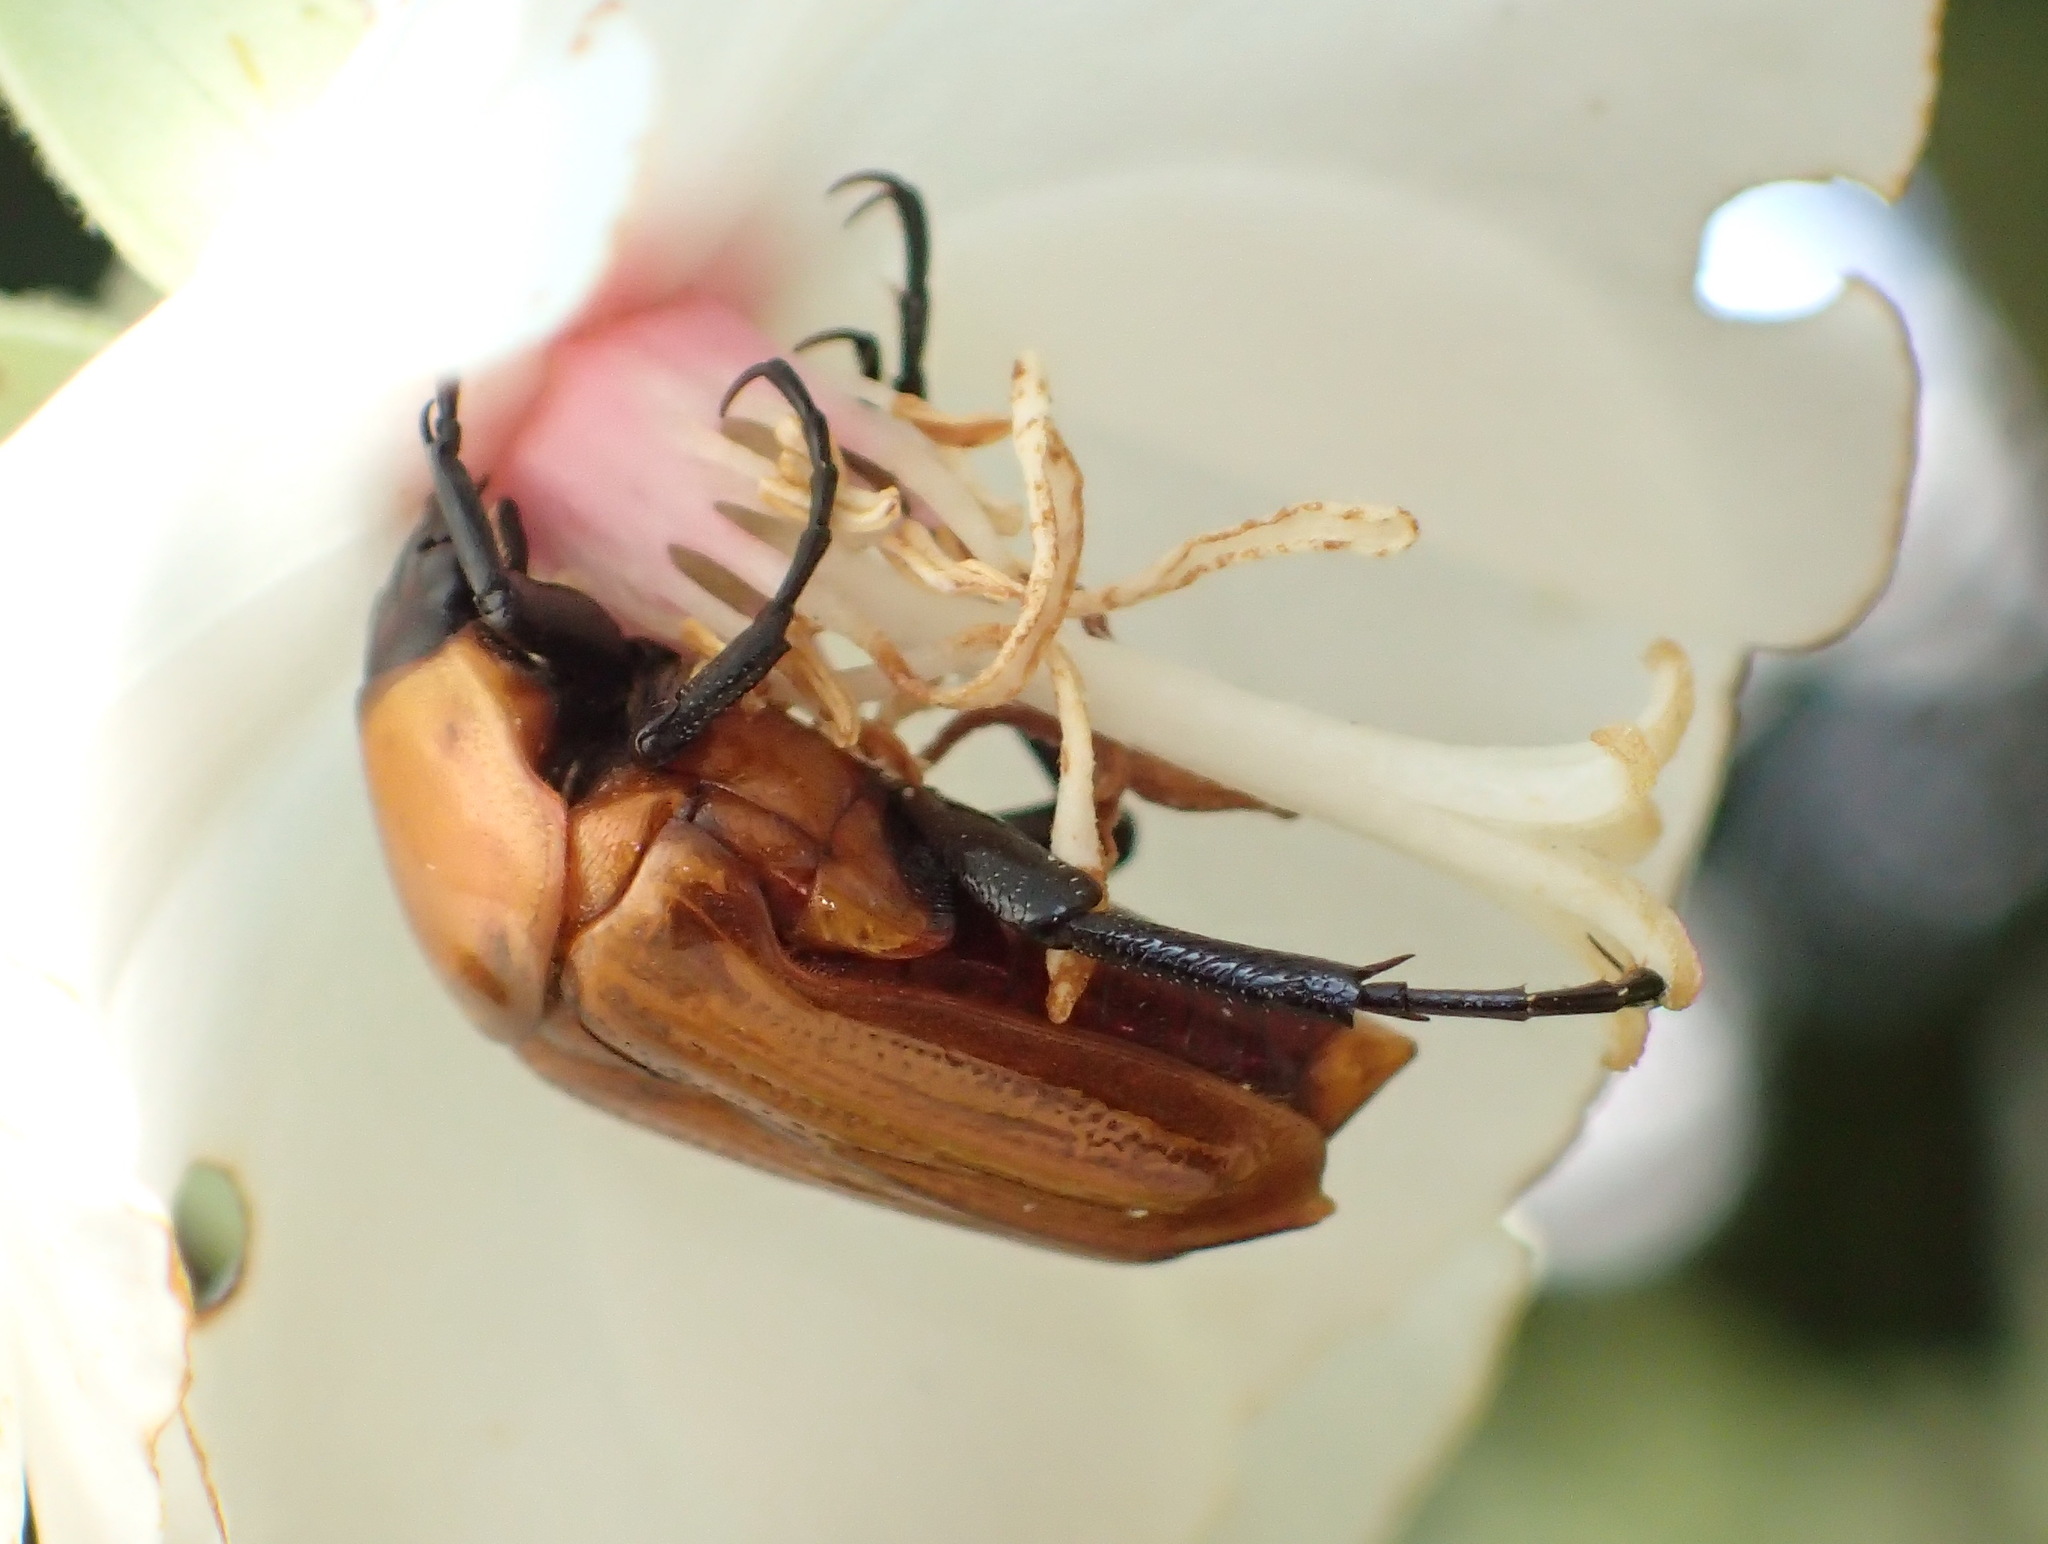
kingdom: Animalia
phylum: Arthropoda
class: Insecta
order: Coleoptera
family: Scarabaeidae
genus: Leucocelis
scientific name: Leucocelis rubra
